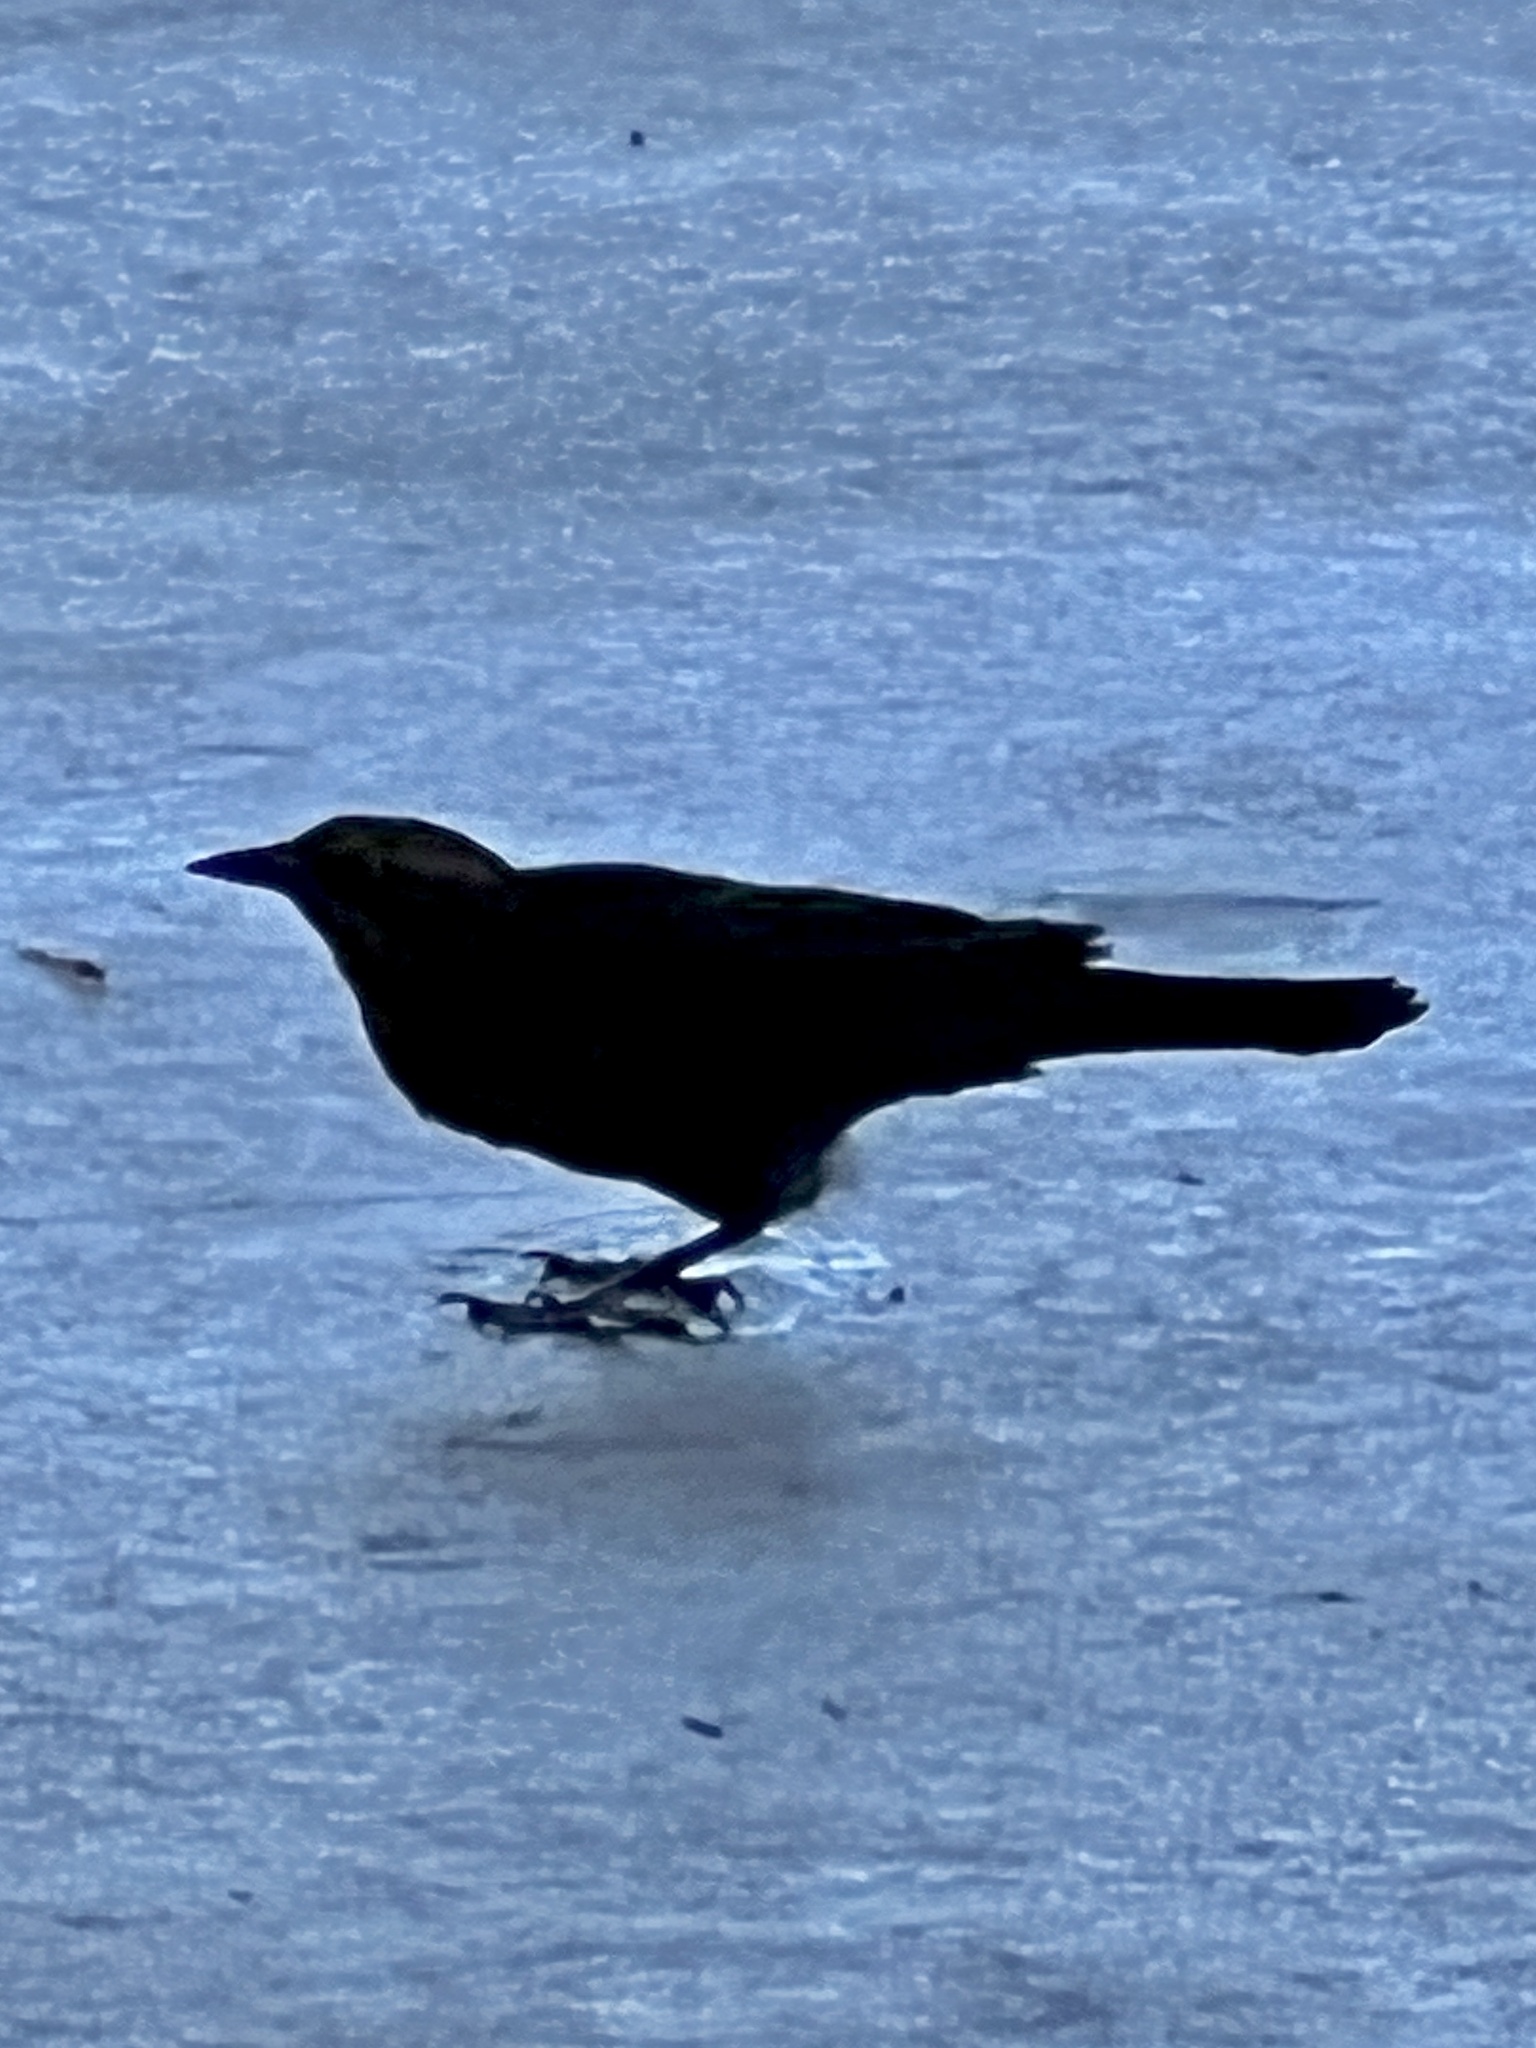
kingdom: Animalia
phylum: Chordata
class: Aves
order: Passeriformes
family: Icteridae
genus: Quiscalus
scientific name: Quiscalus mexicanus
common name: Great-tailed grackle
